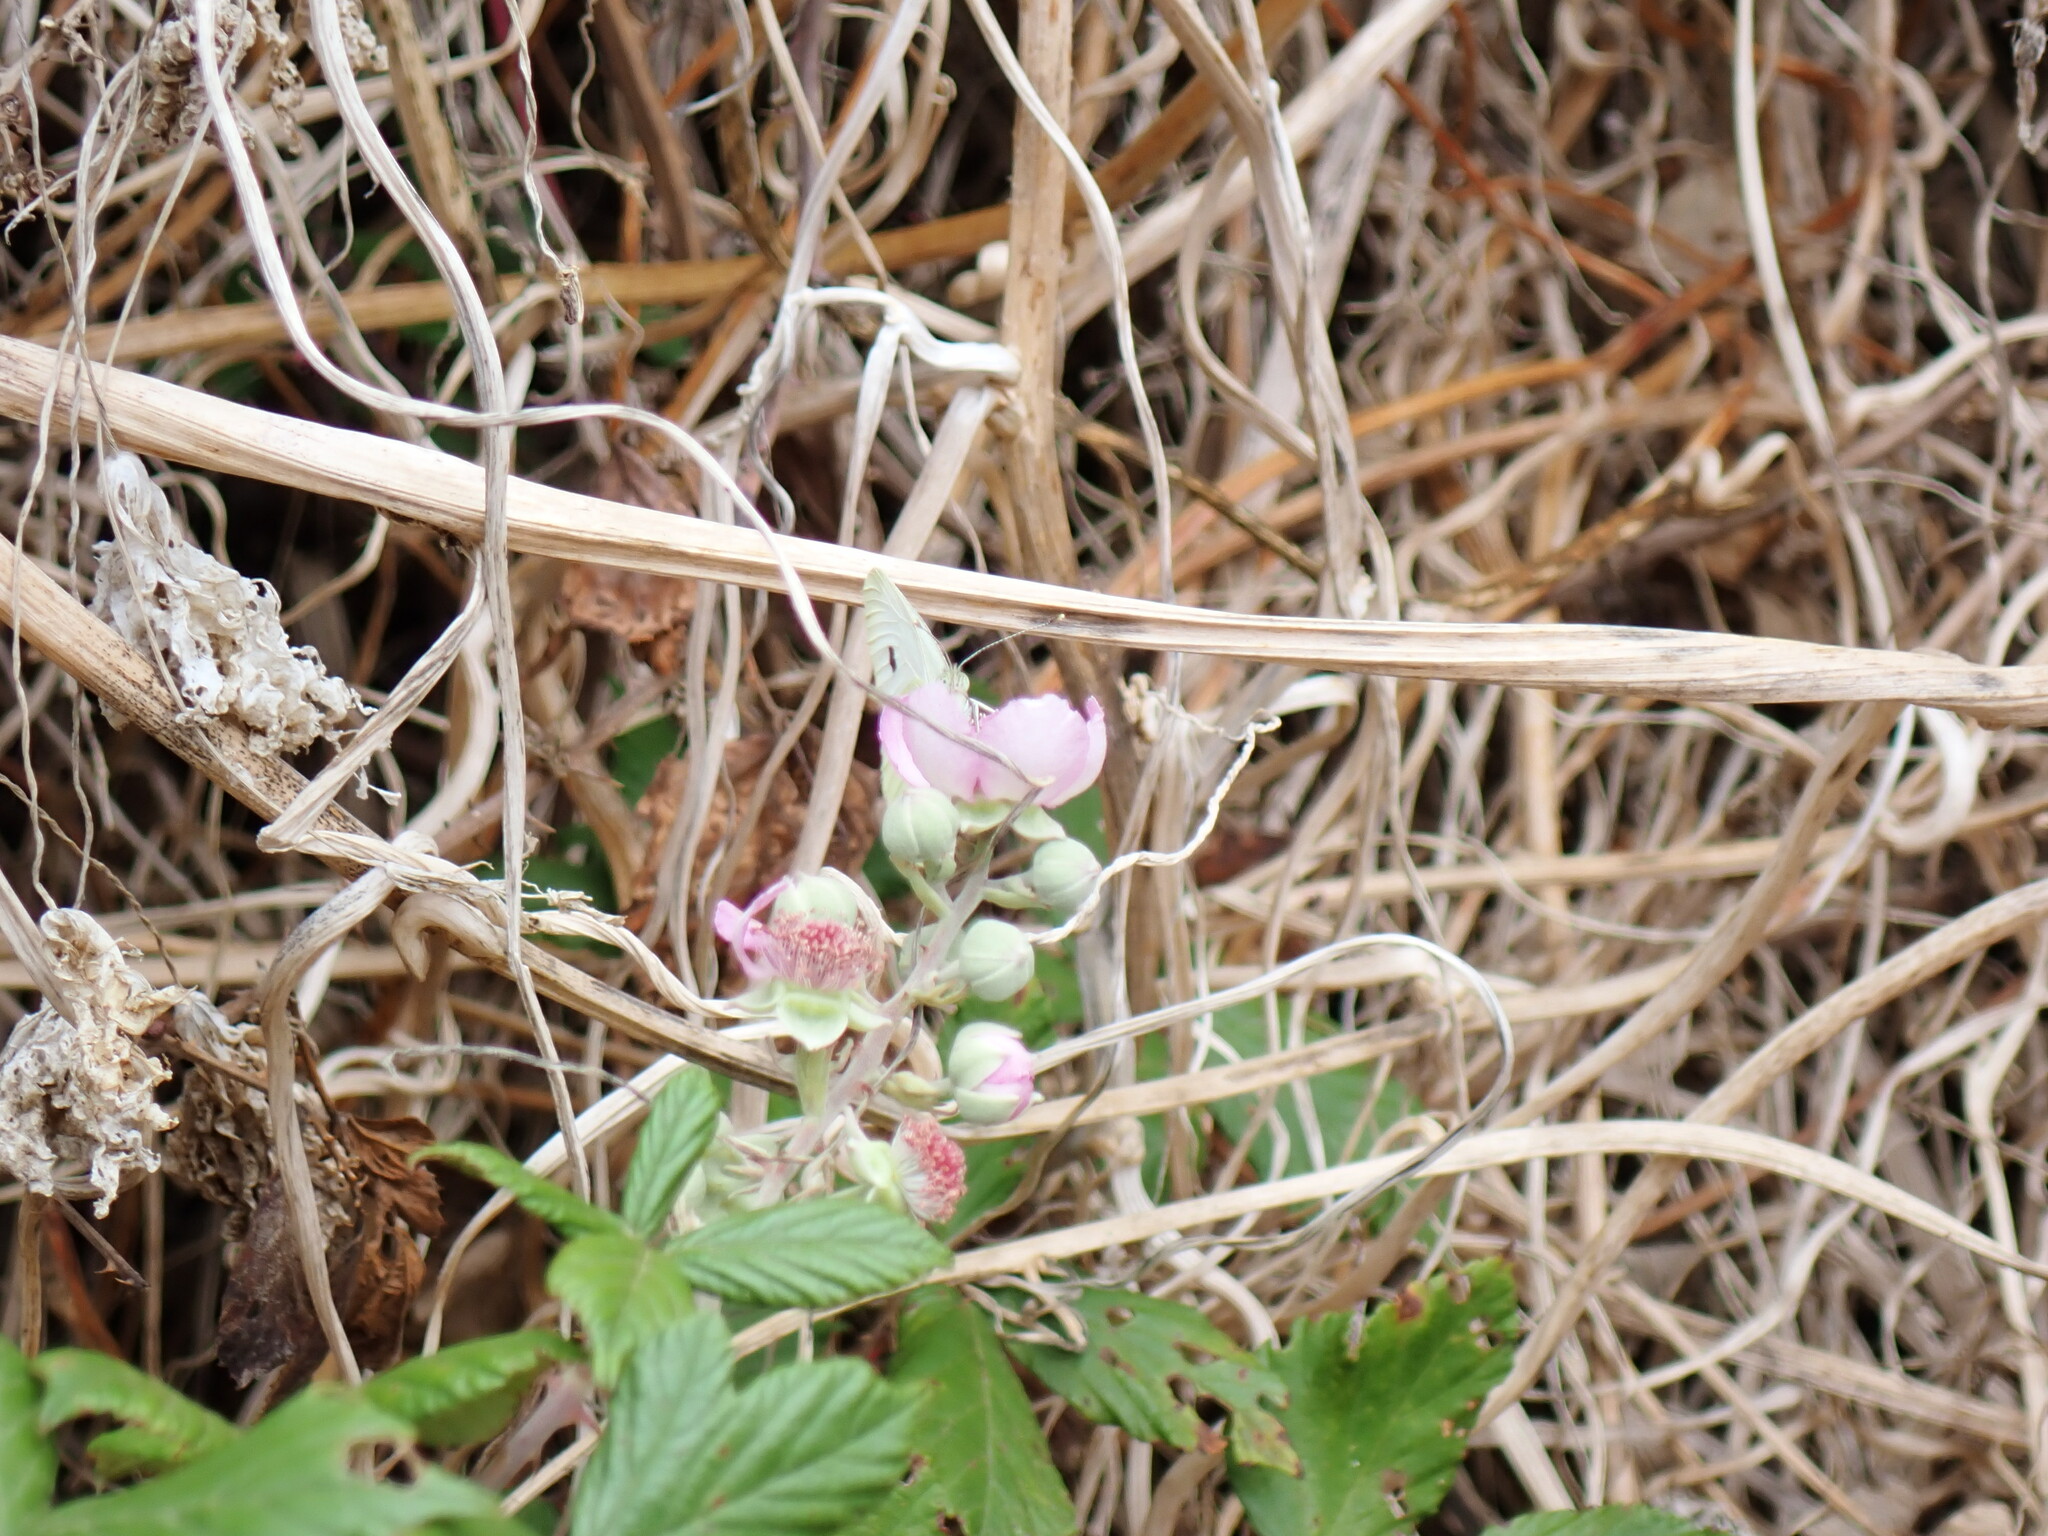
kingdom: Animalia
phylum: Arthropoda
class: Insecta
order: Lepidoptera
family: Pieridae
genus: Pieris
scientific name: Pieris rapae
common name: Small white
